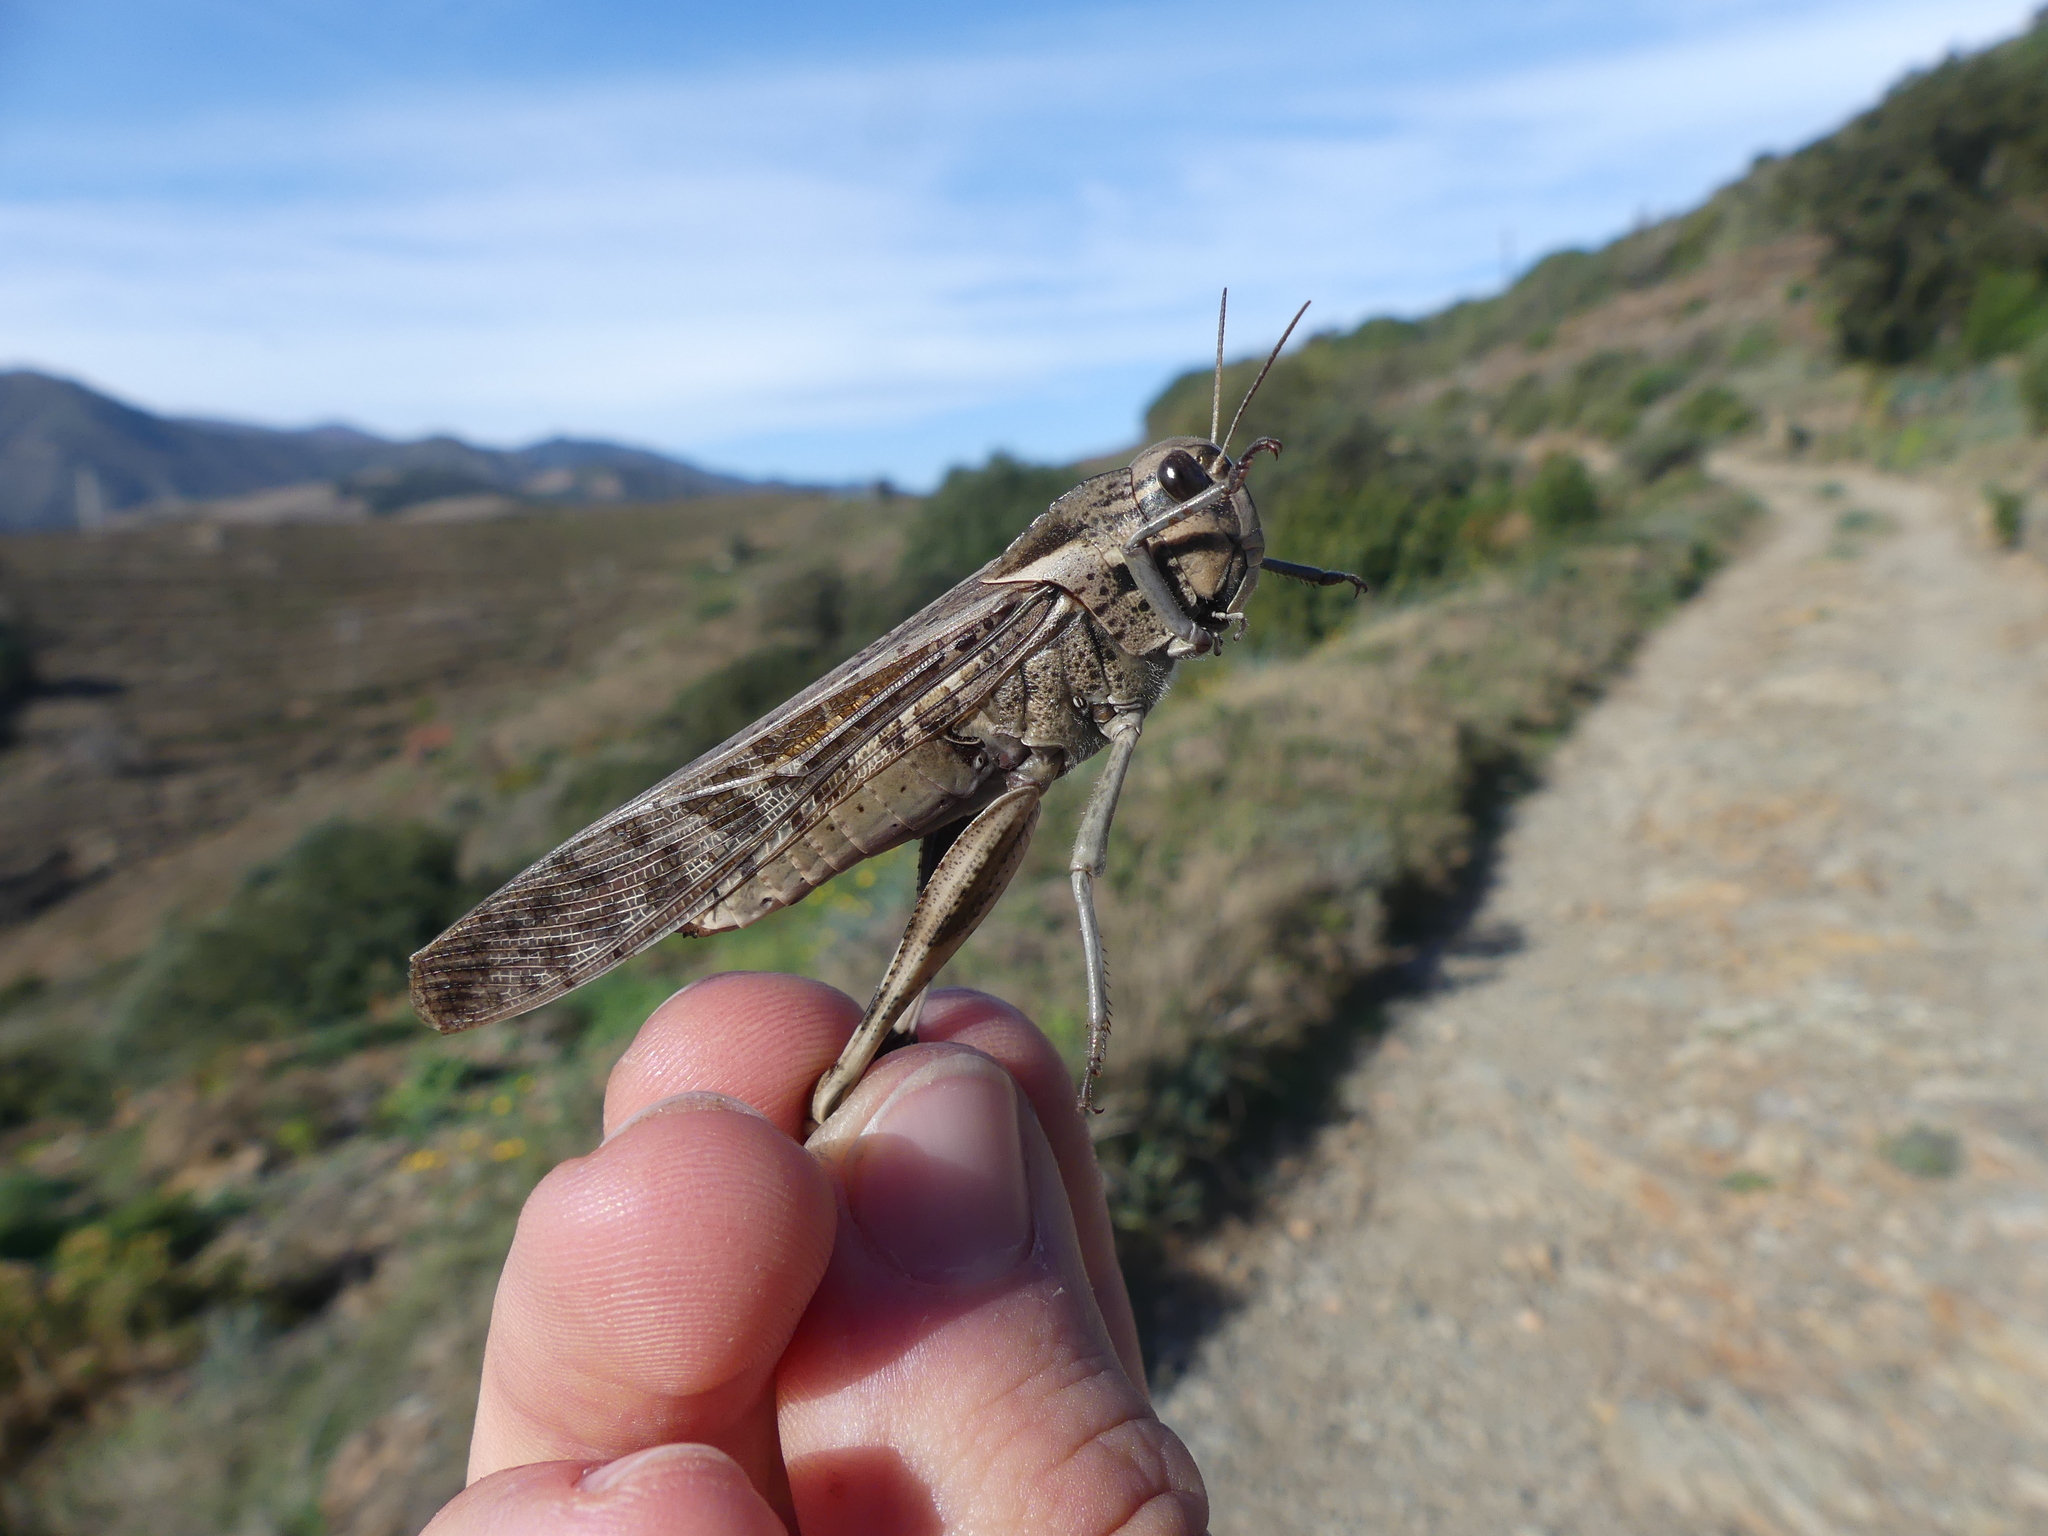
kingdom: Animalia
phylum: Arthropoda
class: Insecta
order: Orthoptera
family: Acrididae
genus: Locusta
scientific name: Locusta migratoria
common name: Migratory locust
